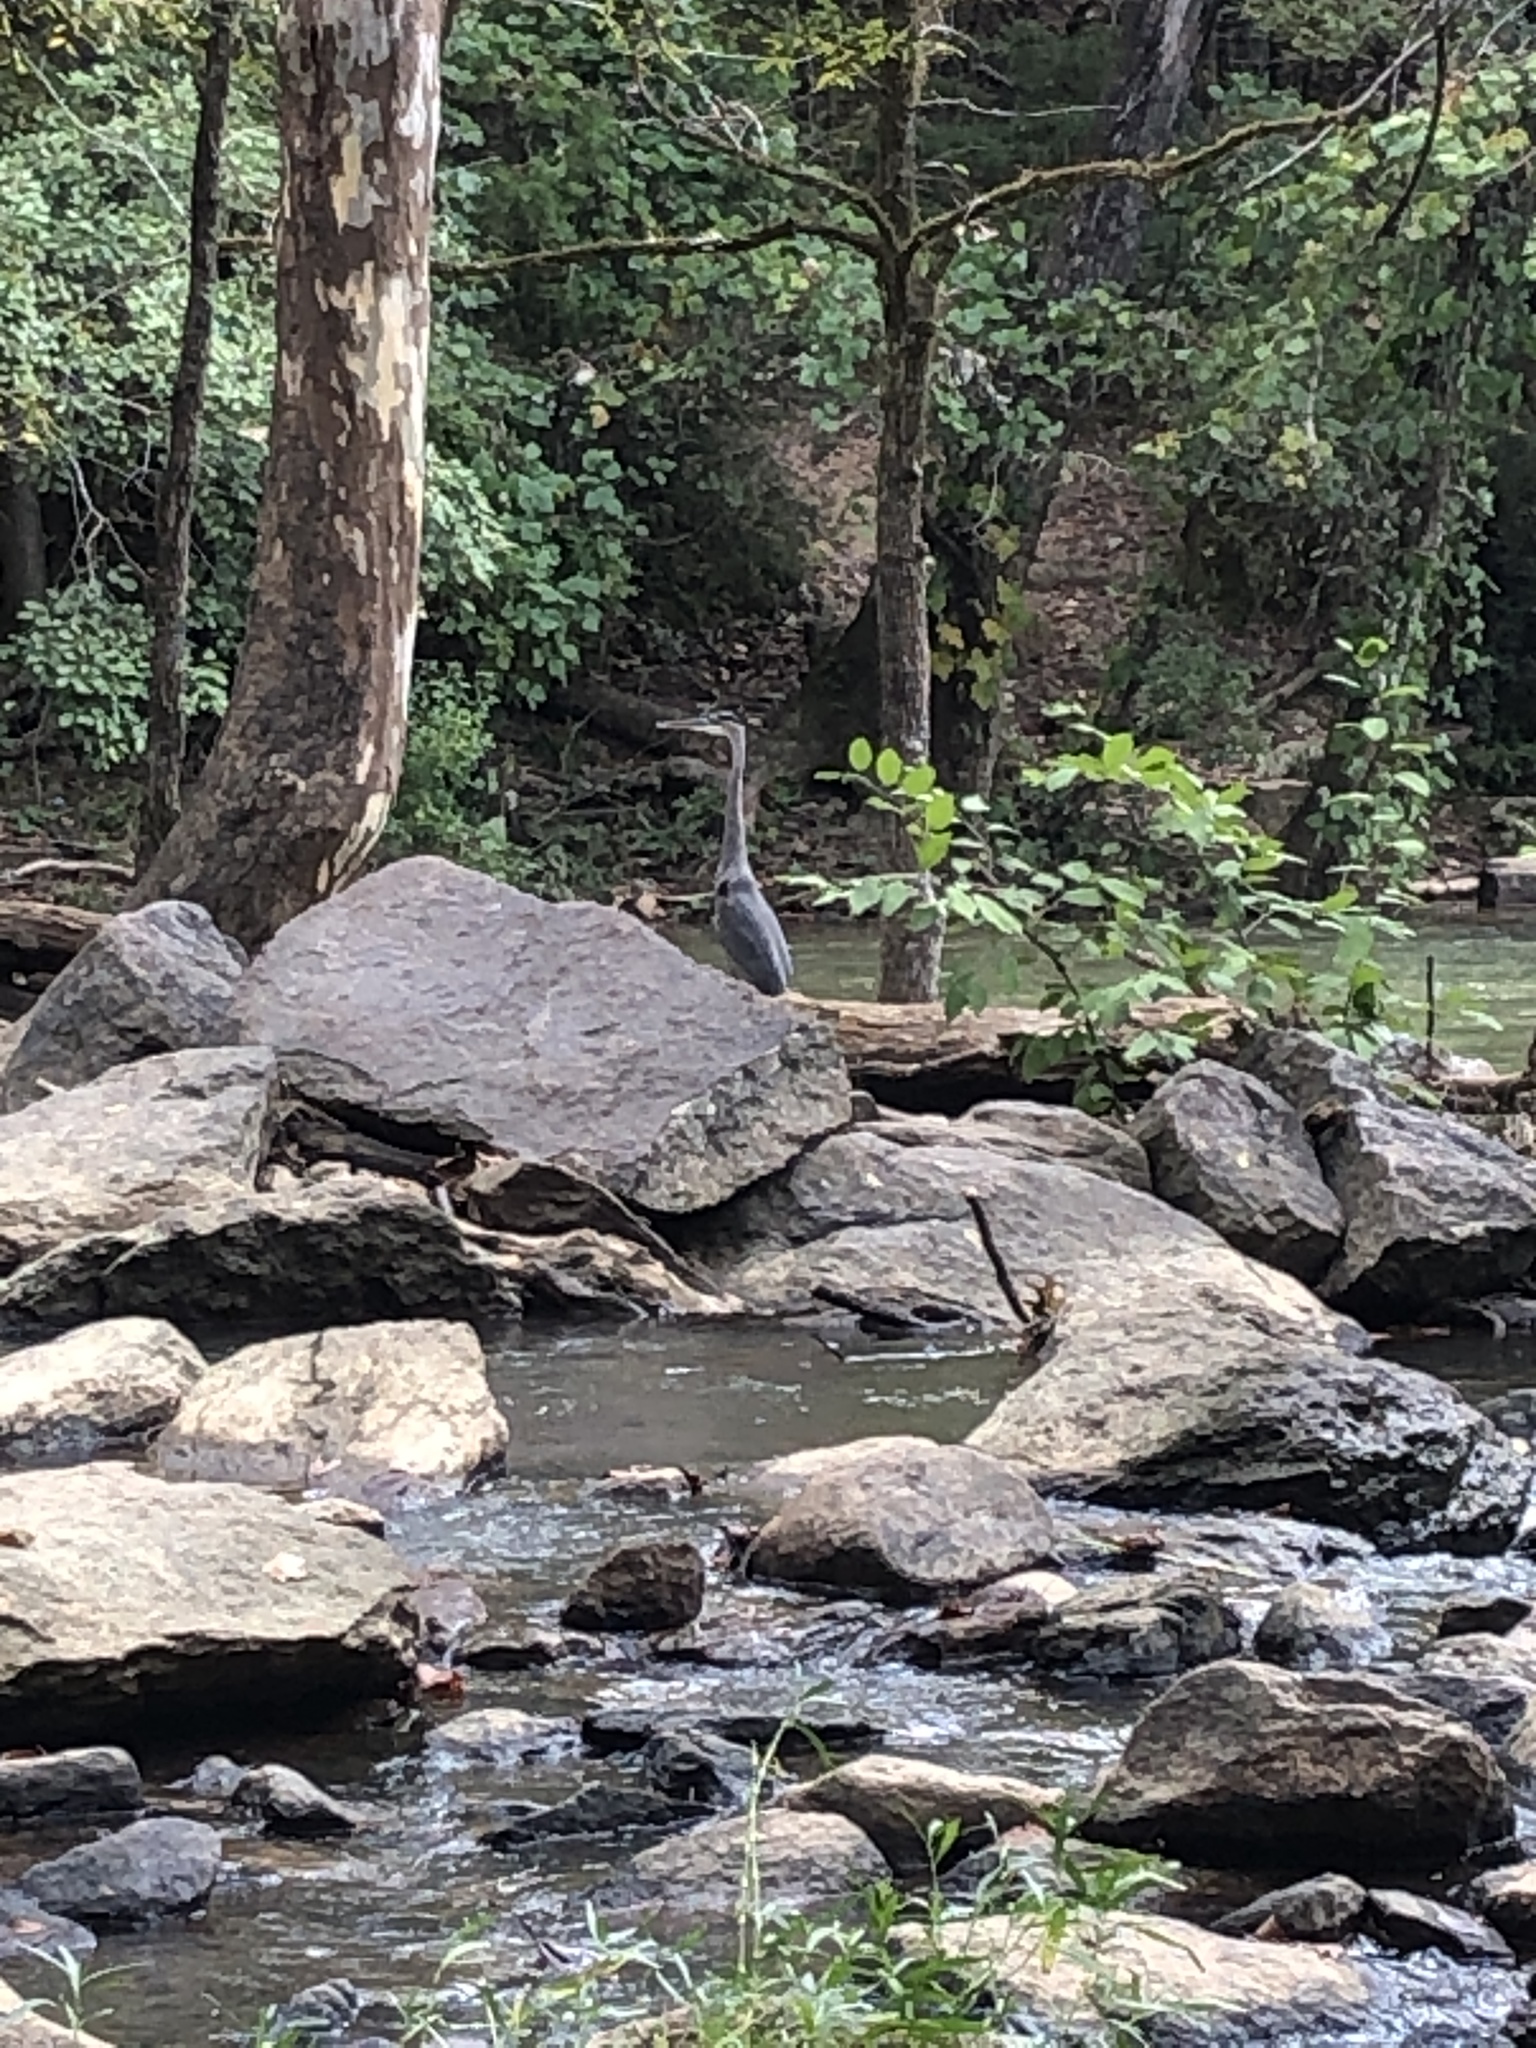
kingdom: Animalia
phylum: Chordata
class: Aves
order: Pelecaniformes
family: Ardeidae
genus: Ardea
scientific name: Ardea herodias
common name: Great blue heron
